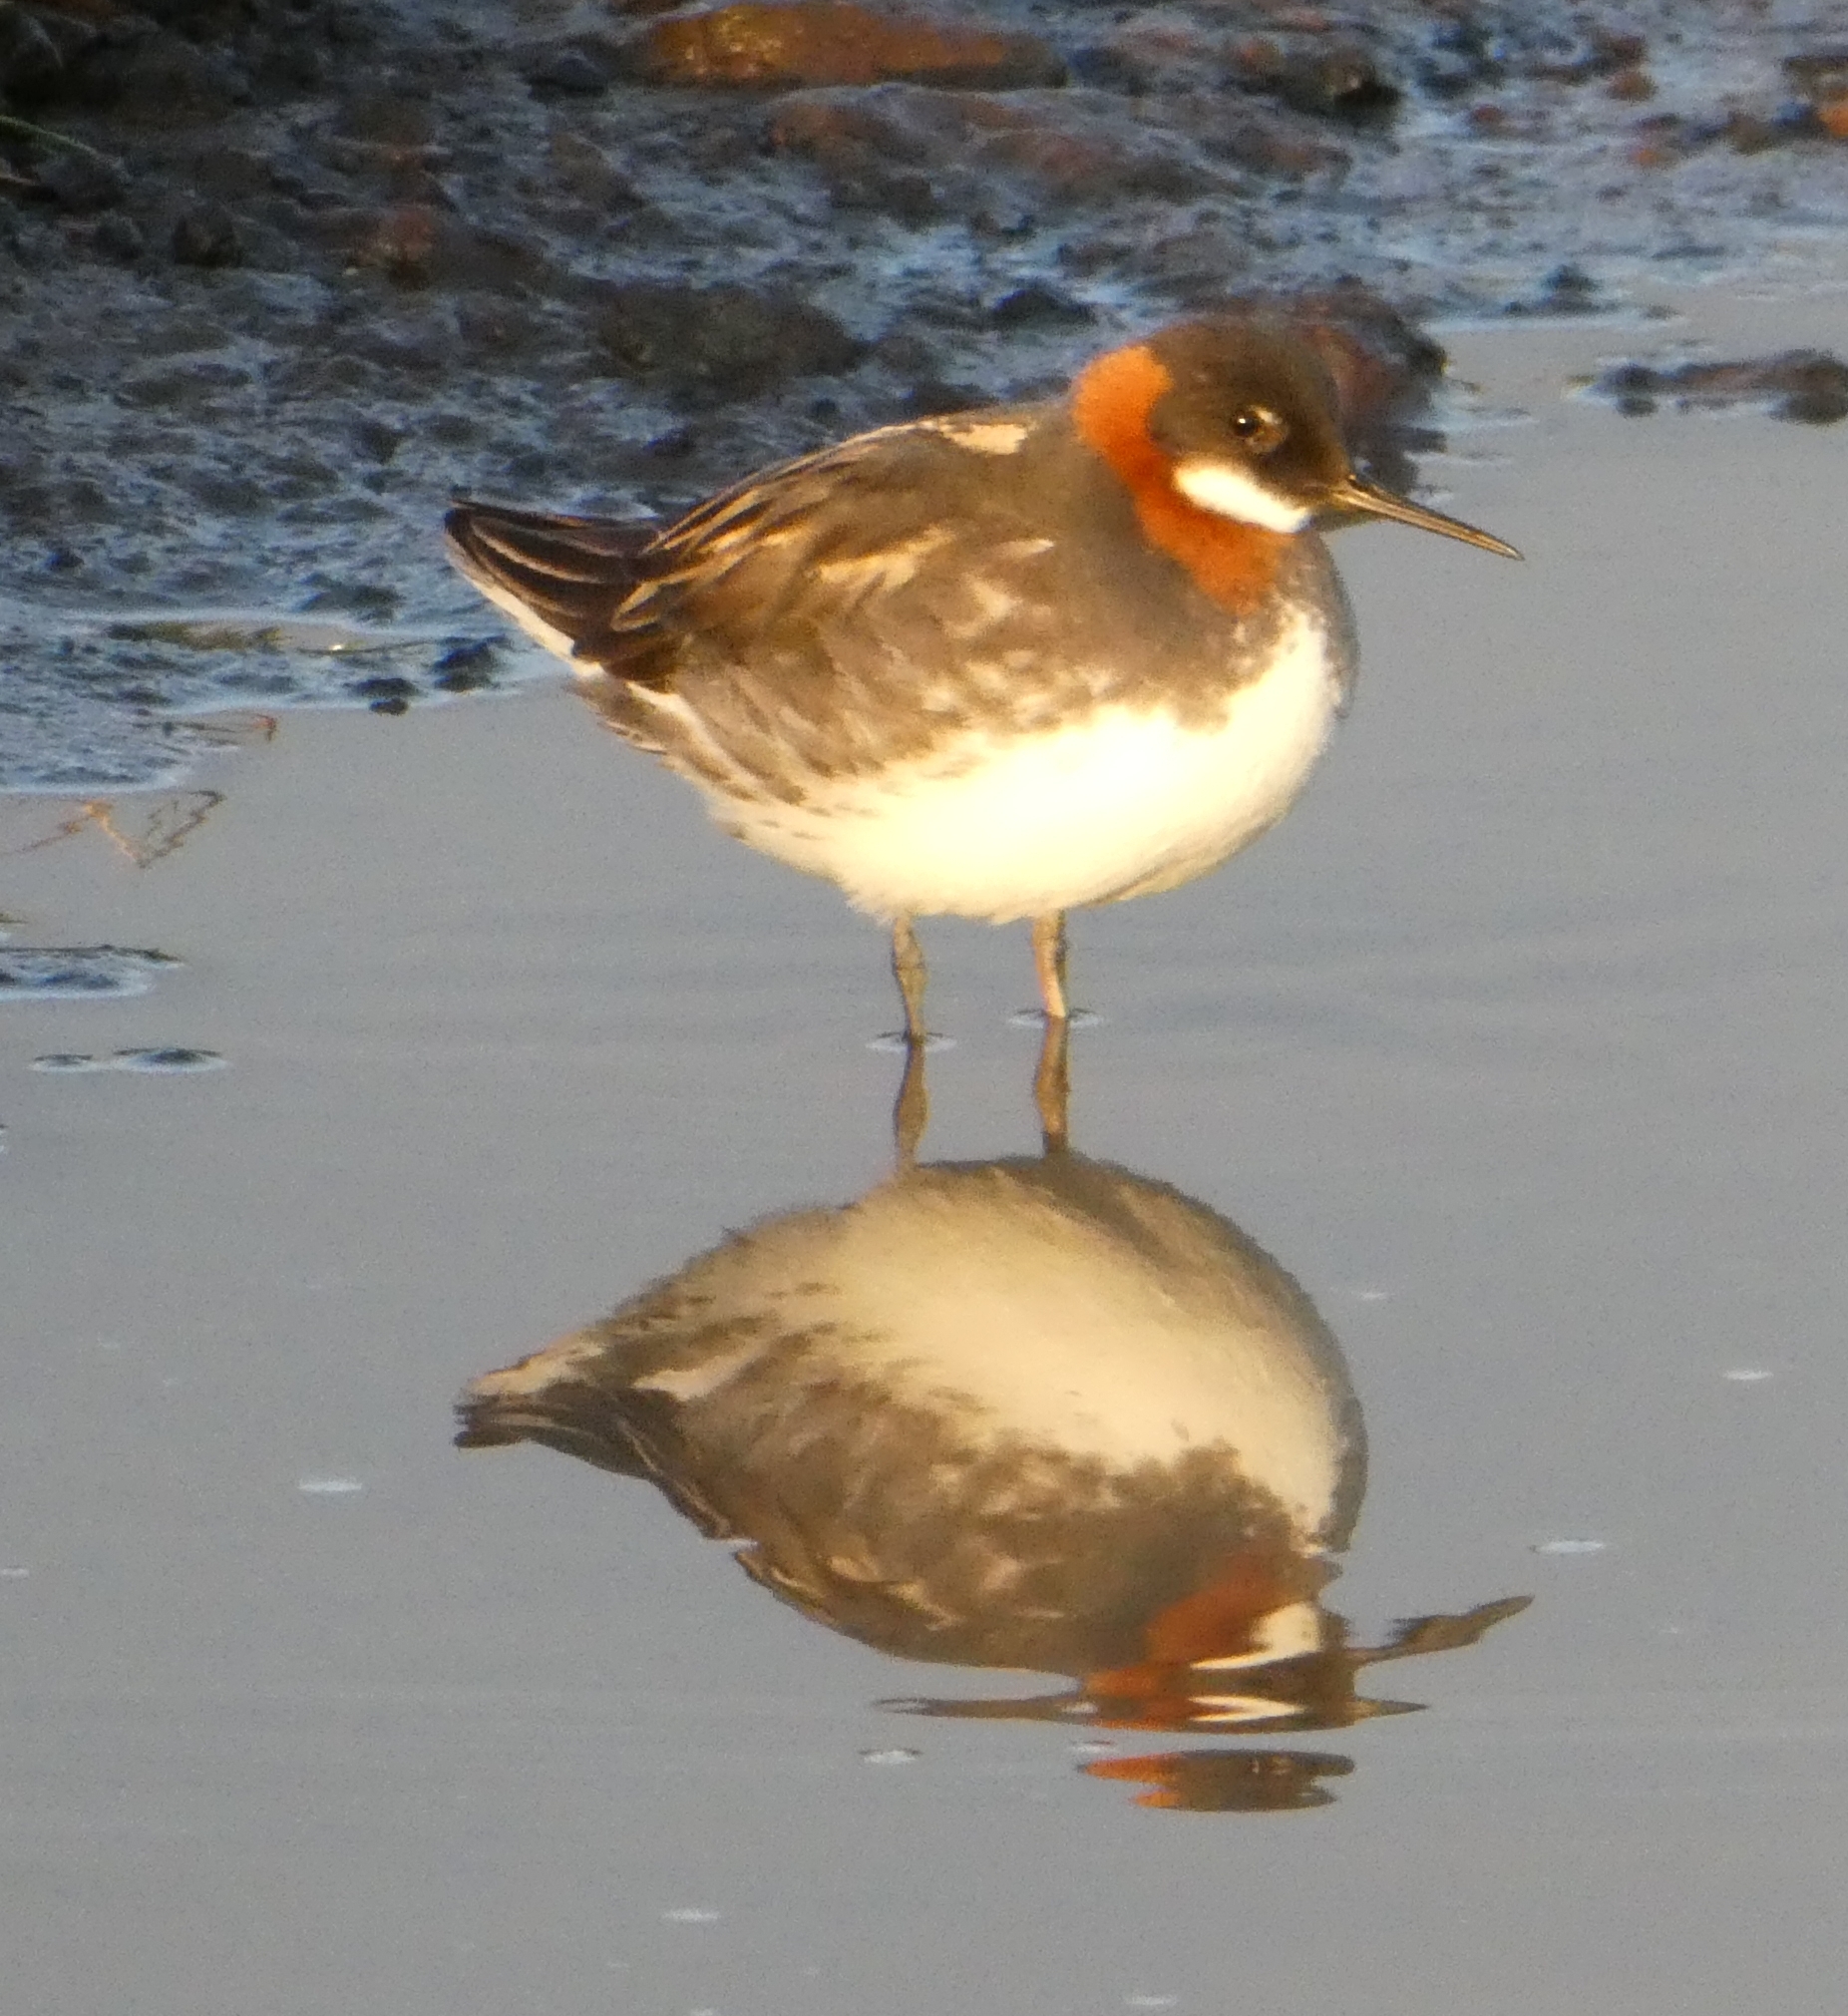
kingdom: Animalia
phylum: Chordata
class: Aves
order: Charadriiformes
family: Scolopacidae
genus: Phalaropus
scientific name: Phalaropus lobatus
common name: Red-necked phalarope
